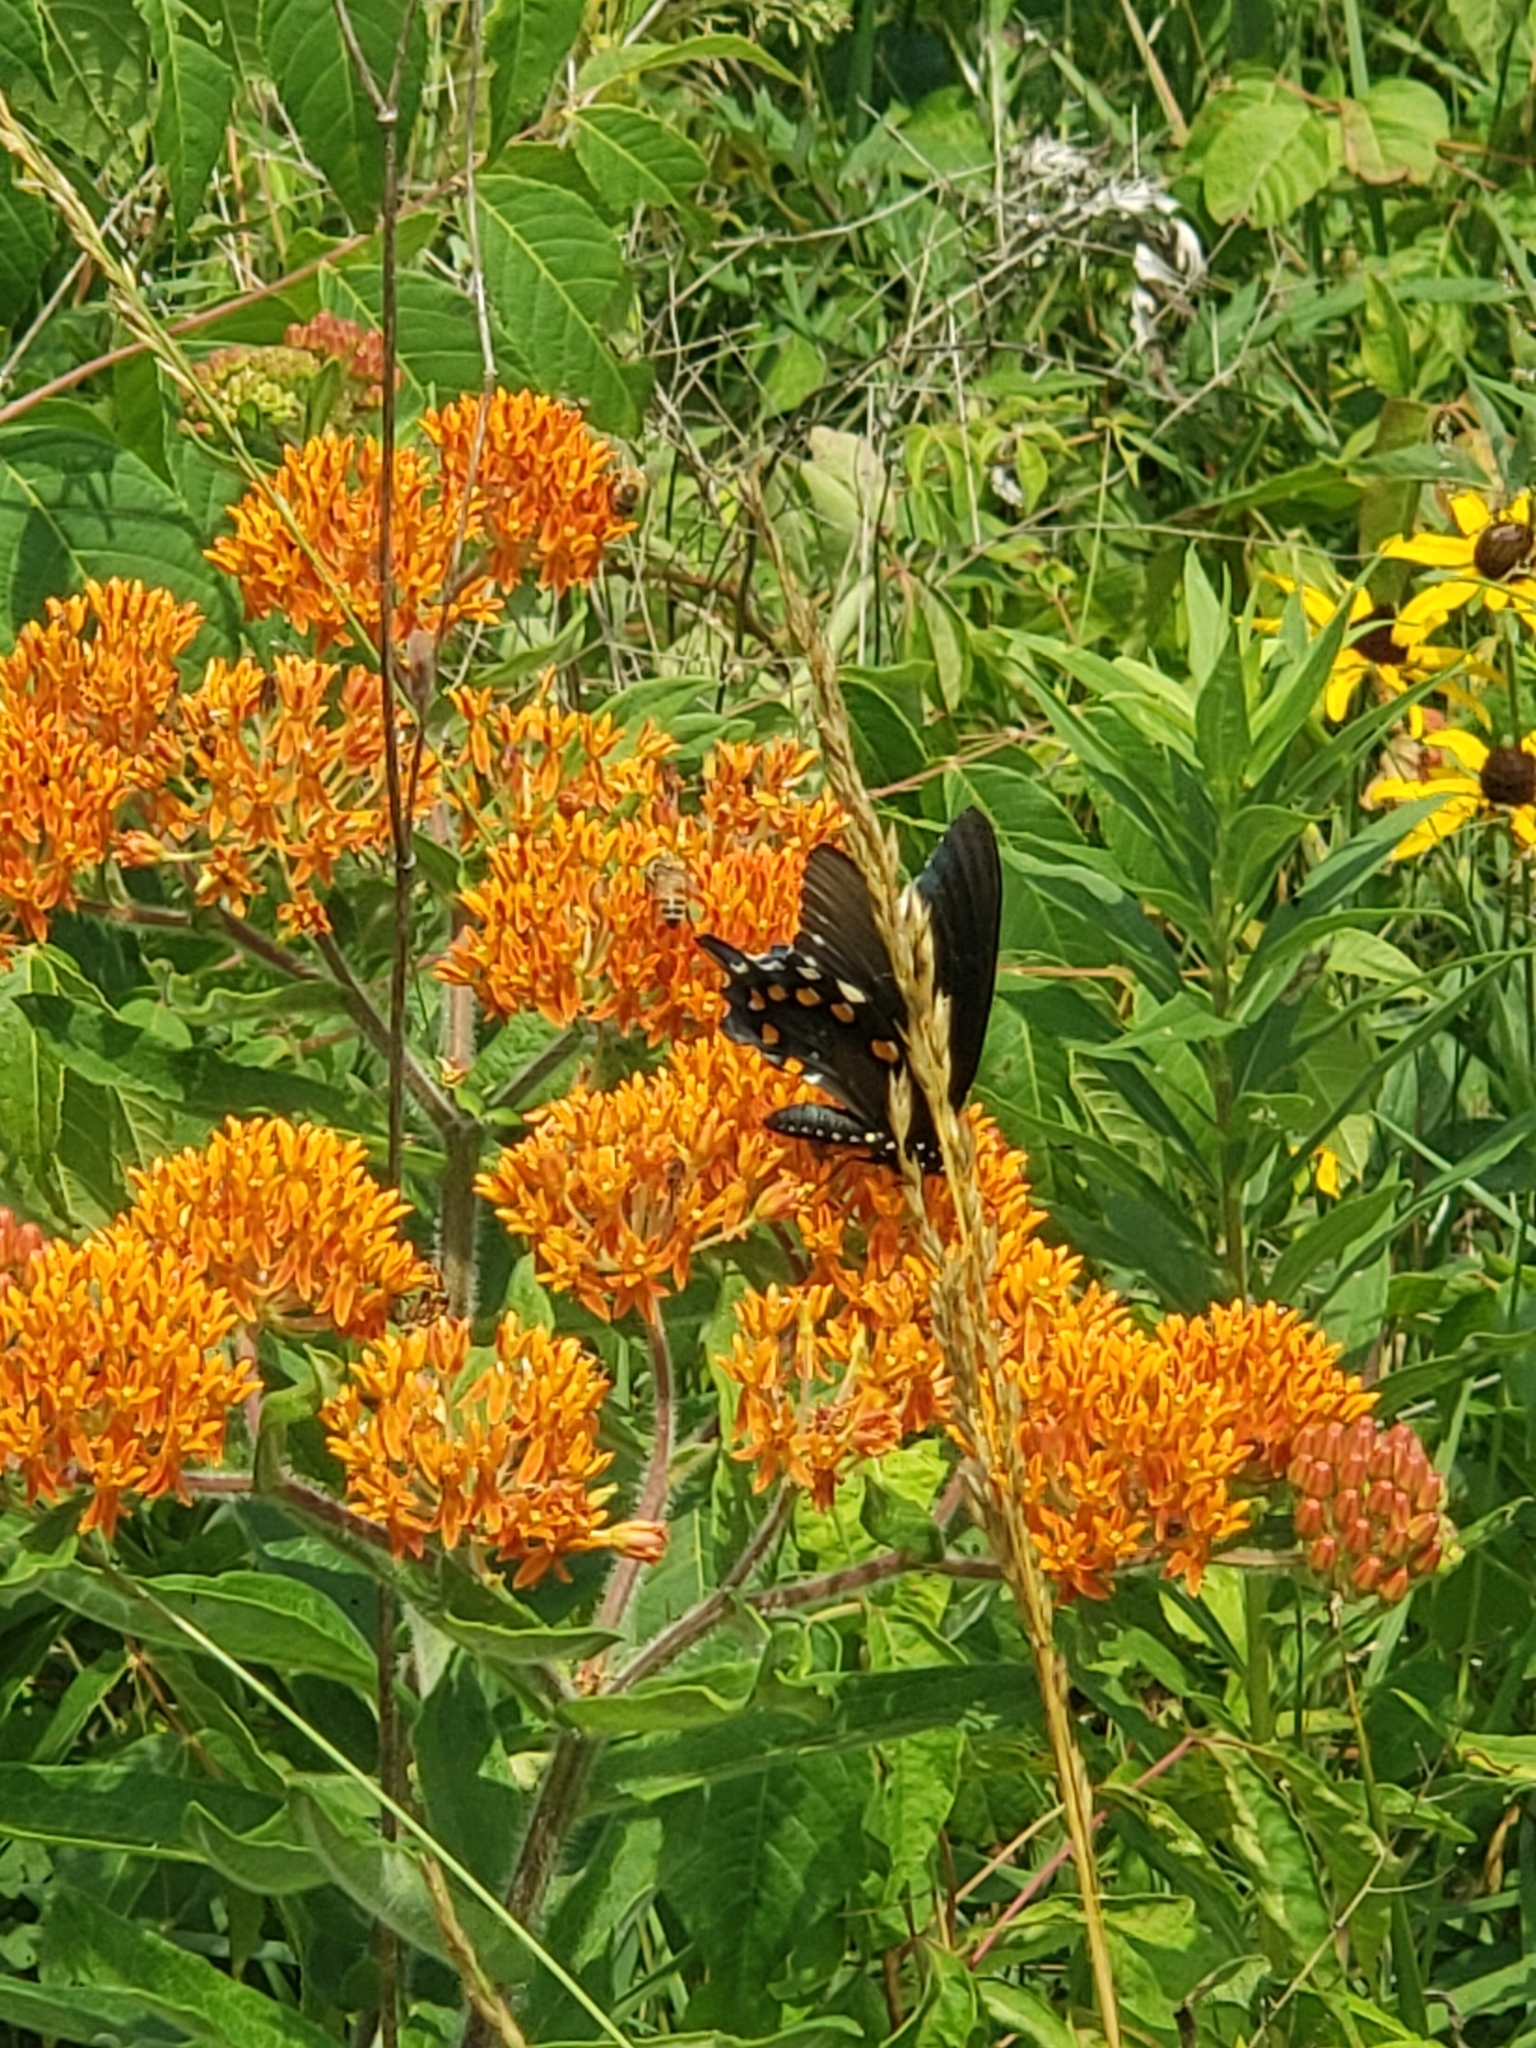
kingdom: Animalia
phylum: Arthropoda
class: Insecta
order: Lepidoptera
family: Papilionidae
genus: Battus
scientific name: Battus philenor
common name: Pipevine swallowtail
